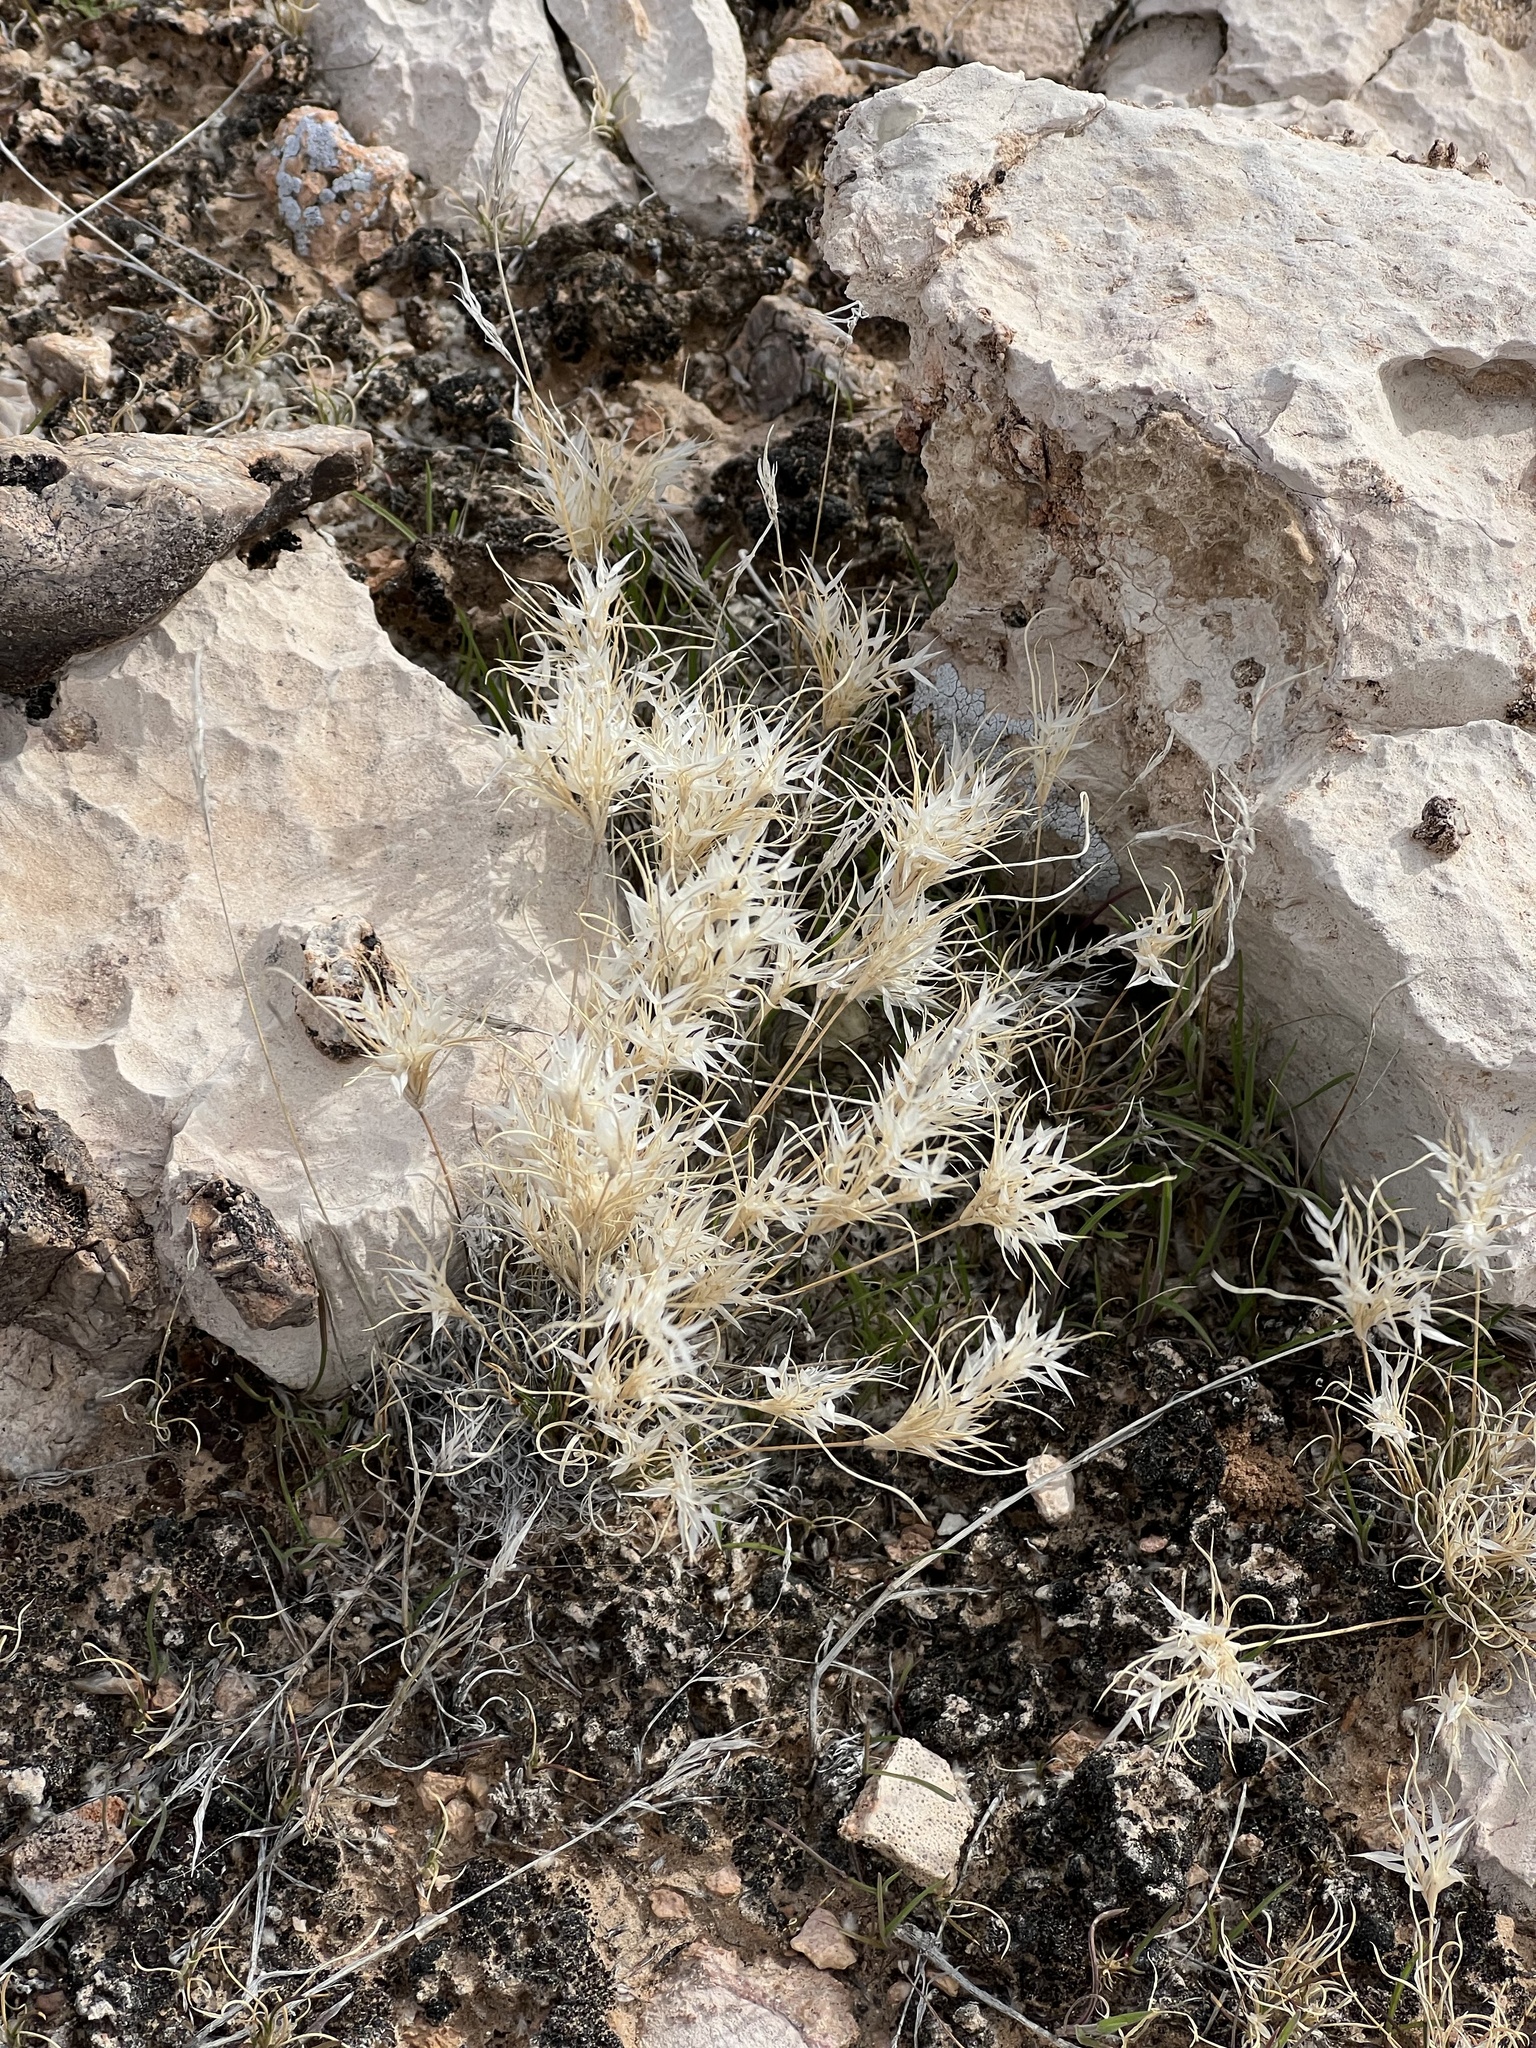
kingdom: Plantae
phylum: Tracheophyta
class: Liliopsida
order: Poales
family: Poaceae
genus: Dasyochloa
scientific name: Dasyochloa pulchella
